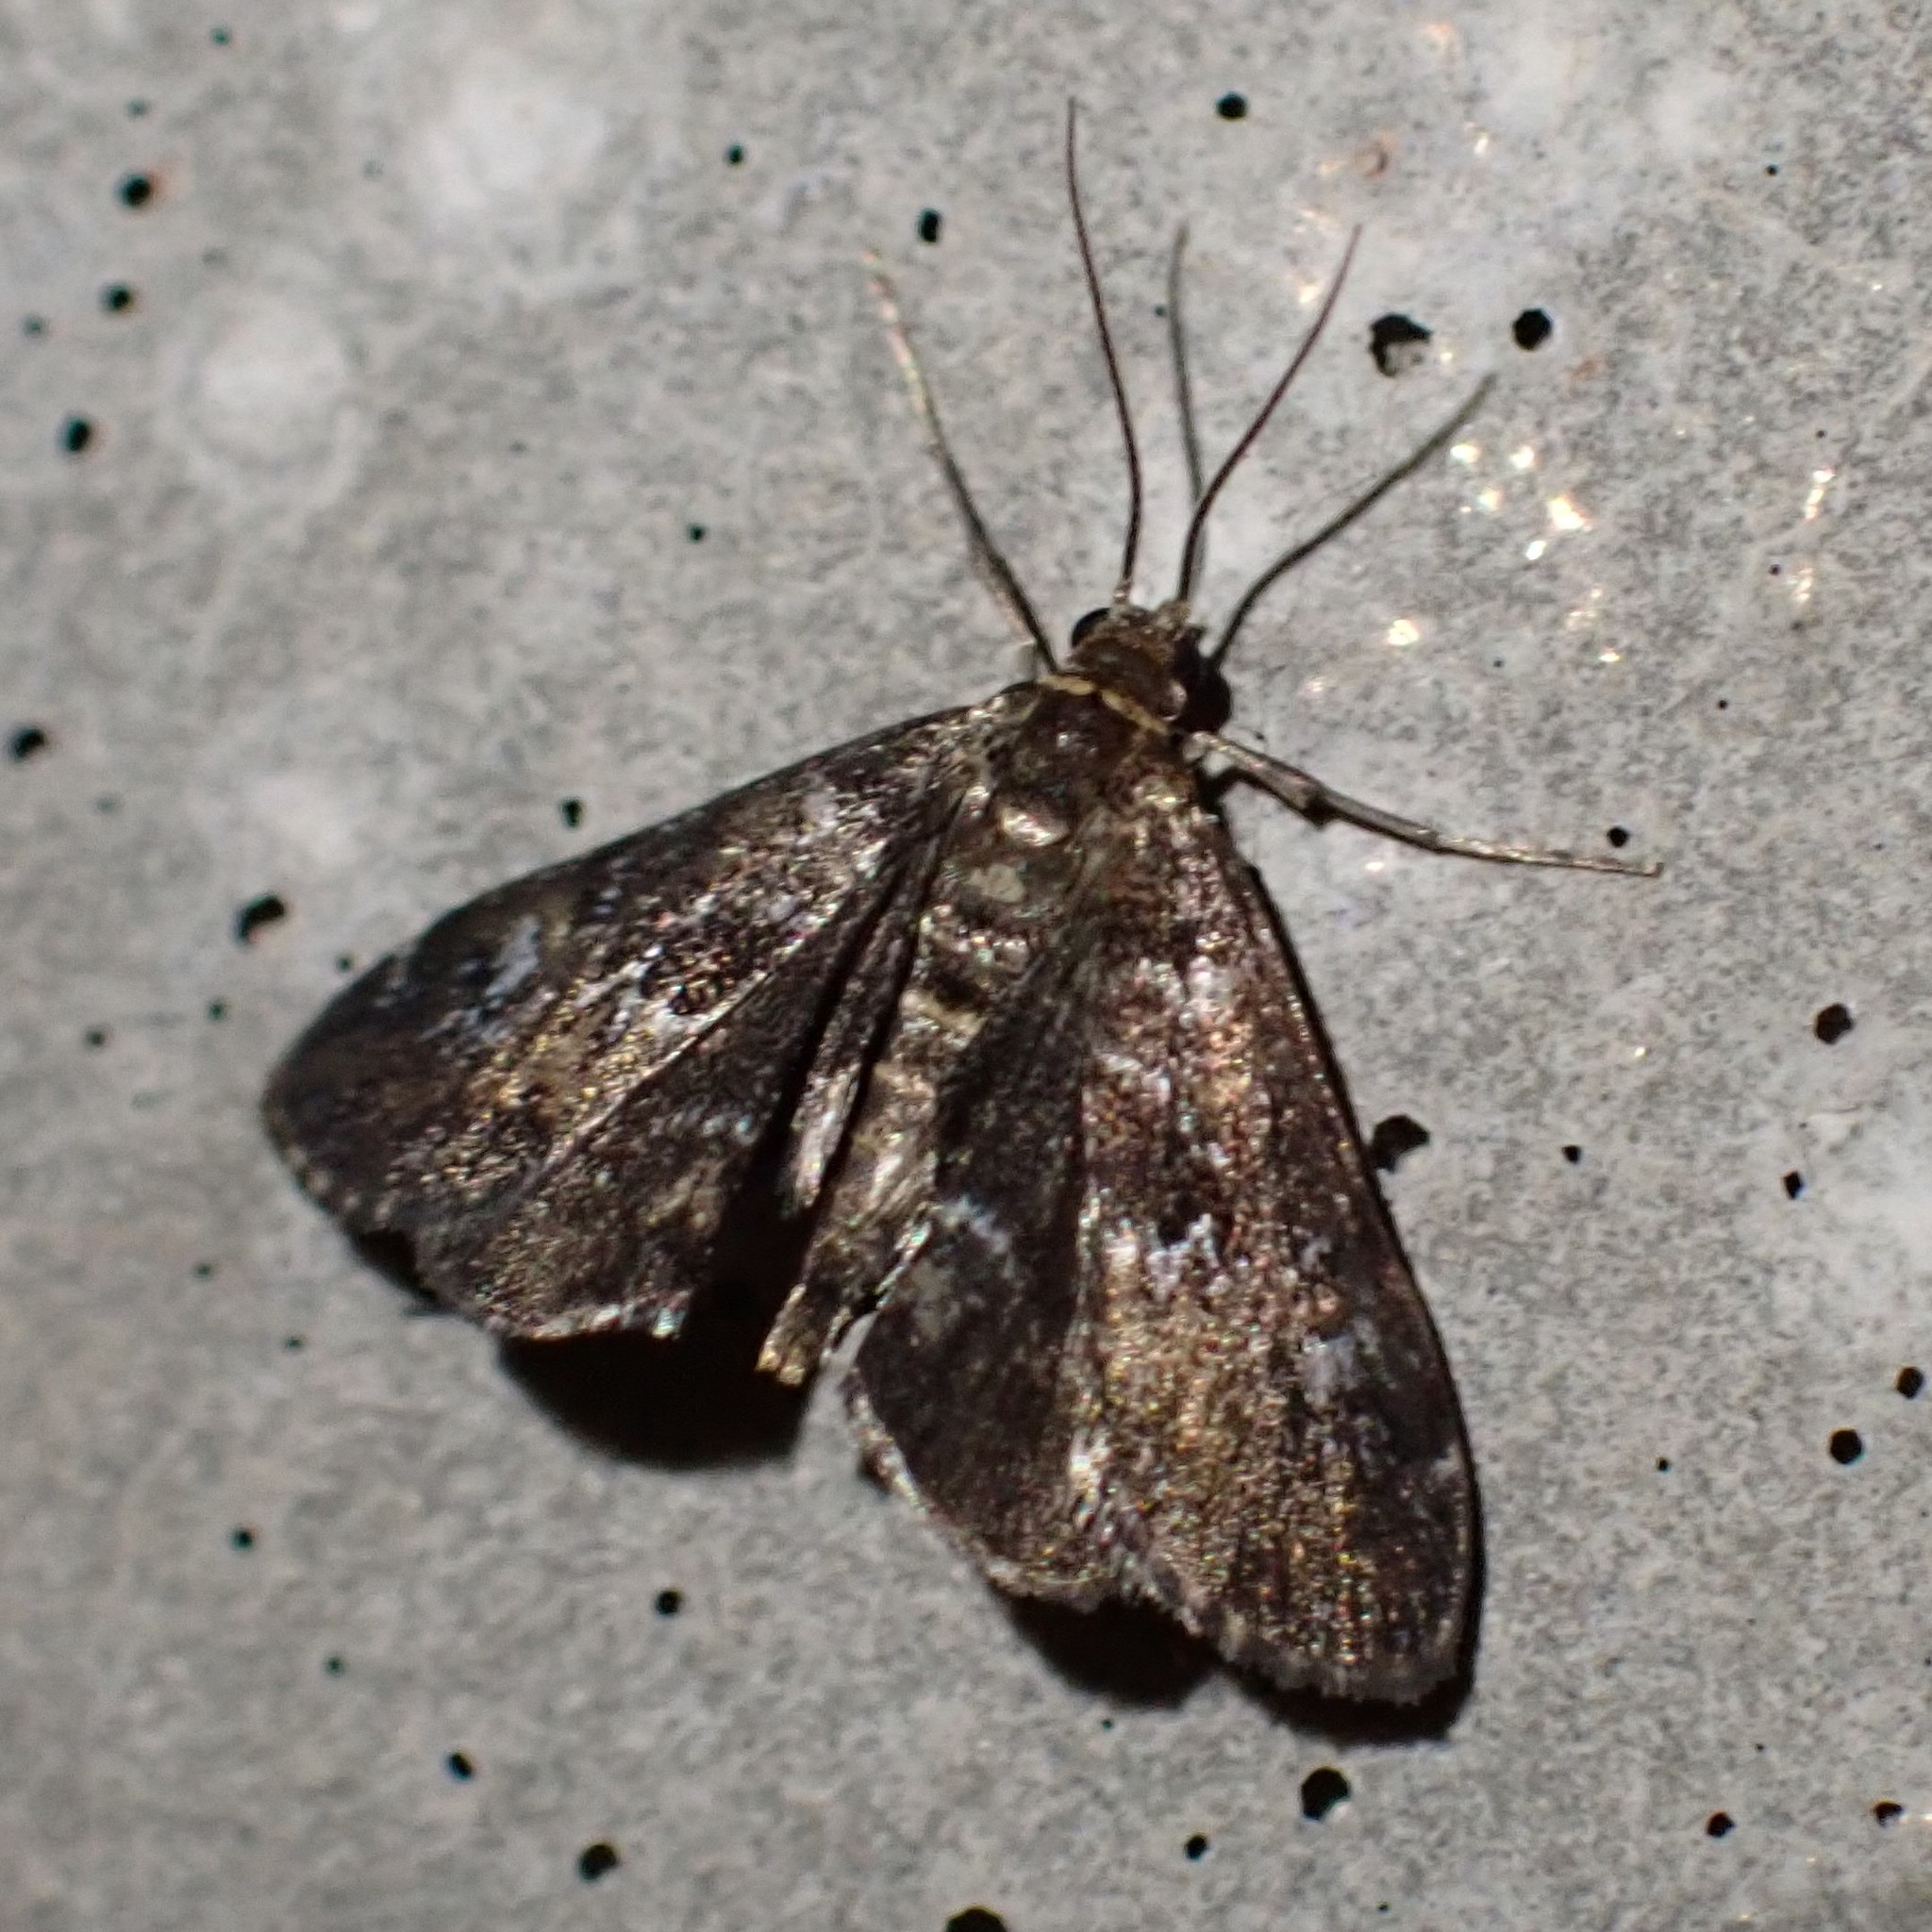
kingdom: Animalia
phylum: Arthropoda
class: Insecta
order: Lepidoptera
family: Crambidae
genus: Elophila
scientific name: Elophila obliteralis
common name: Waterlily leafcutter moth
